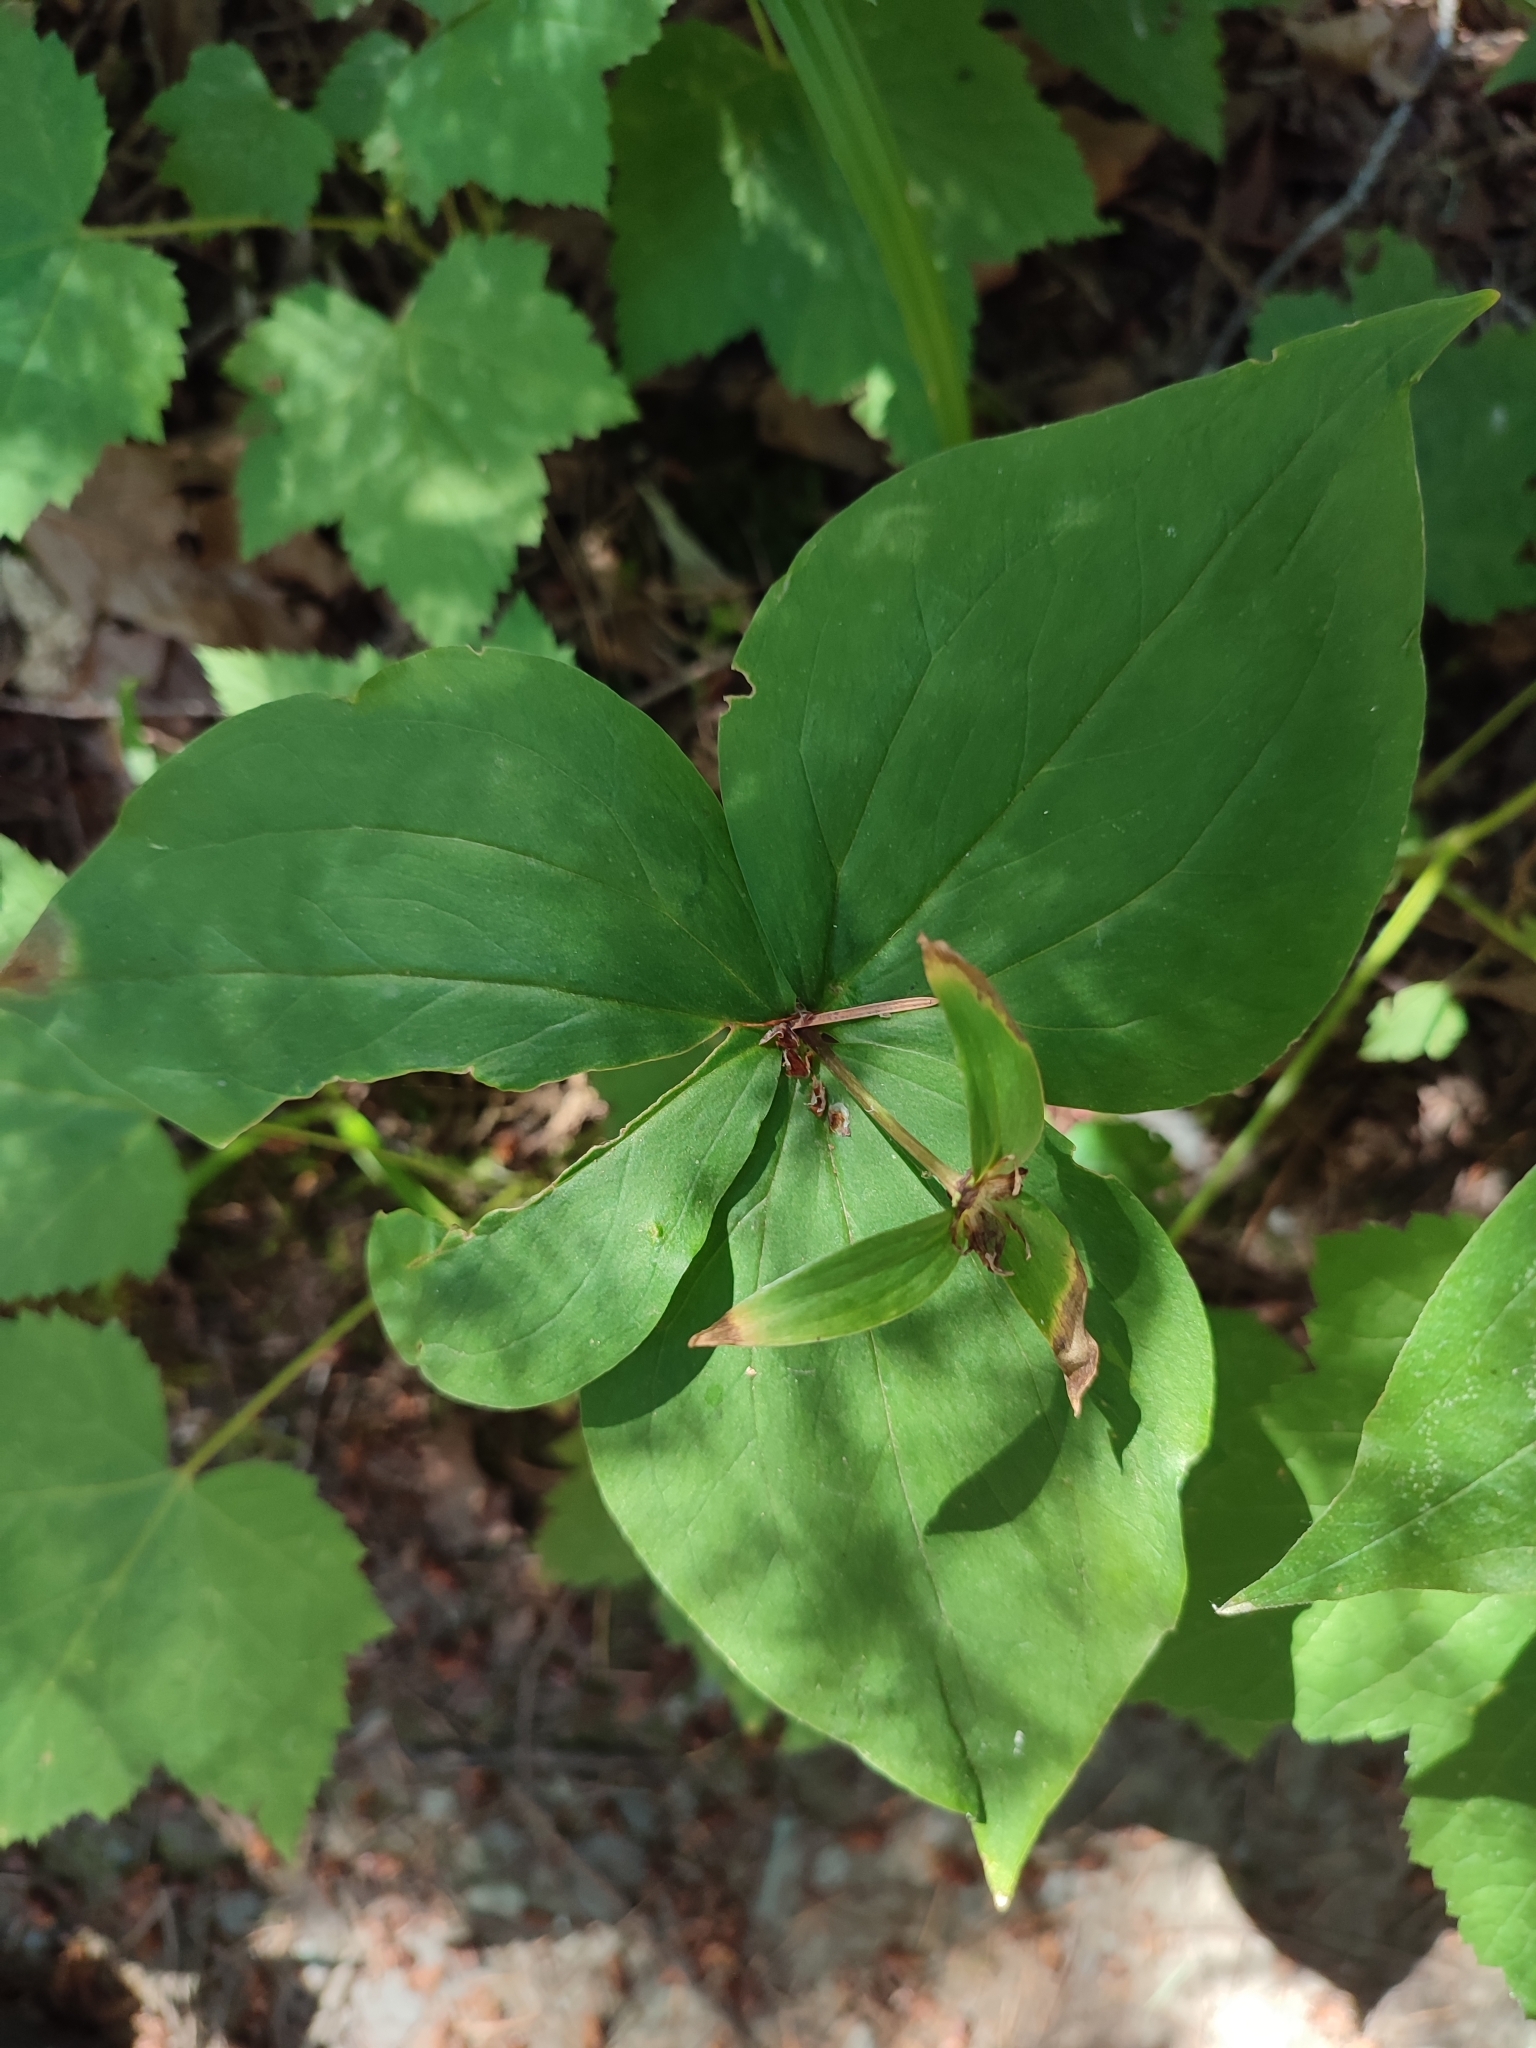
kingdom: Plantae
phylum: Tracheophyta
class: Liliopsida
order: Liliales
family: Melanthiaceae
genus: Trillium
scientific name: Trillium ovatum
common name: Pacific trillium
